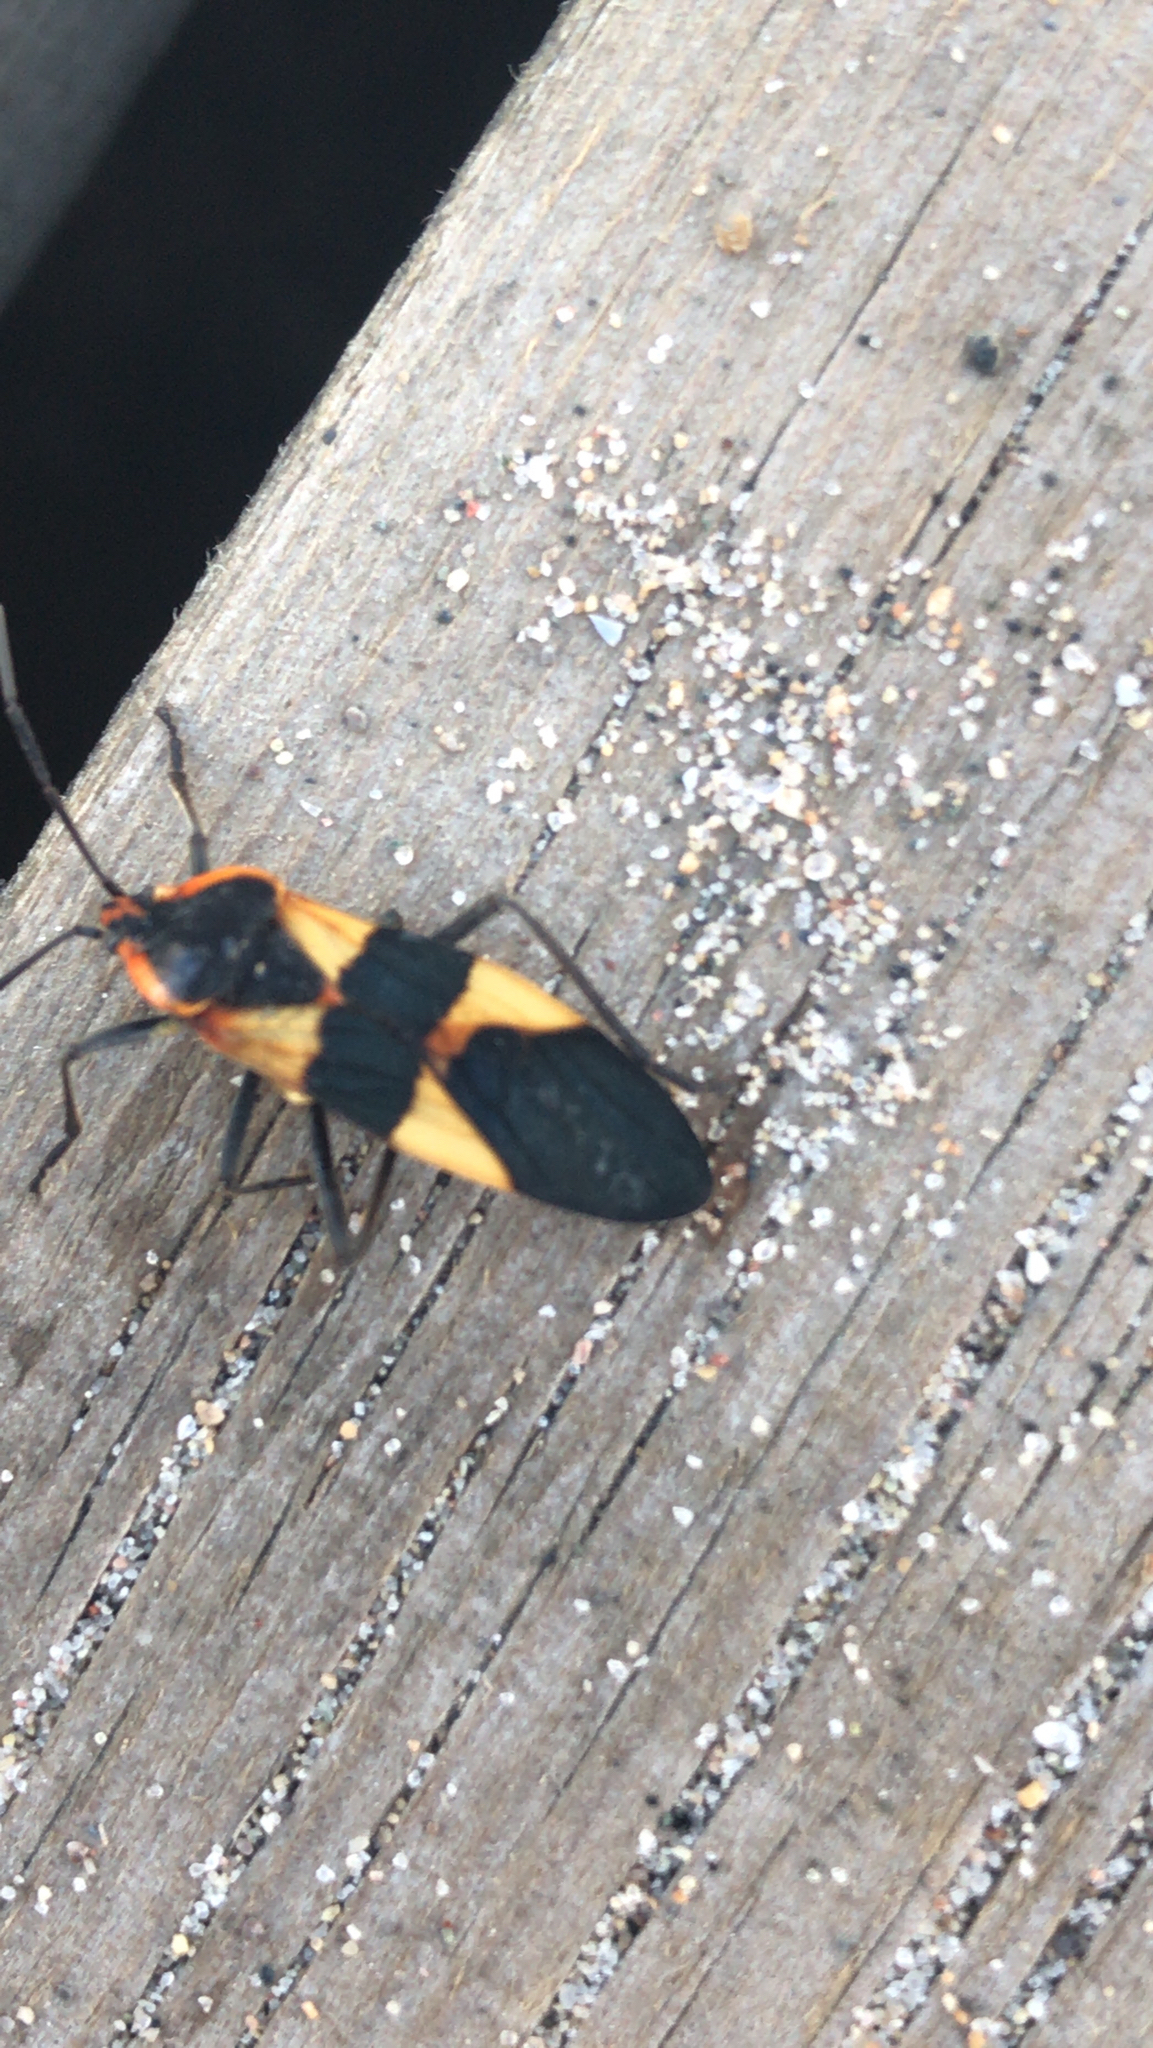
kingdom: Animalia
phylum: Arthropoda
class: Insecta
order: Hemiptera
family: Lygaeidae
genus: Oncopeltus
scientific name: Oncopeltus fasciatus
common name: Large milkweed bug
